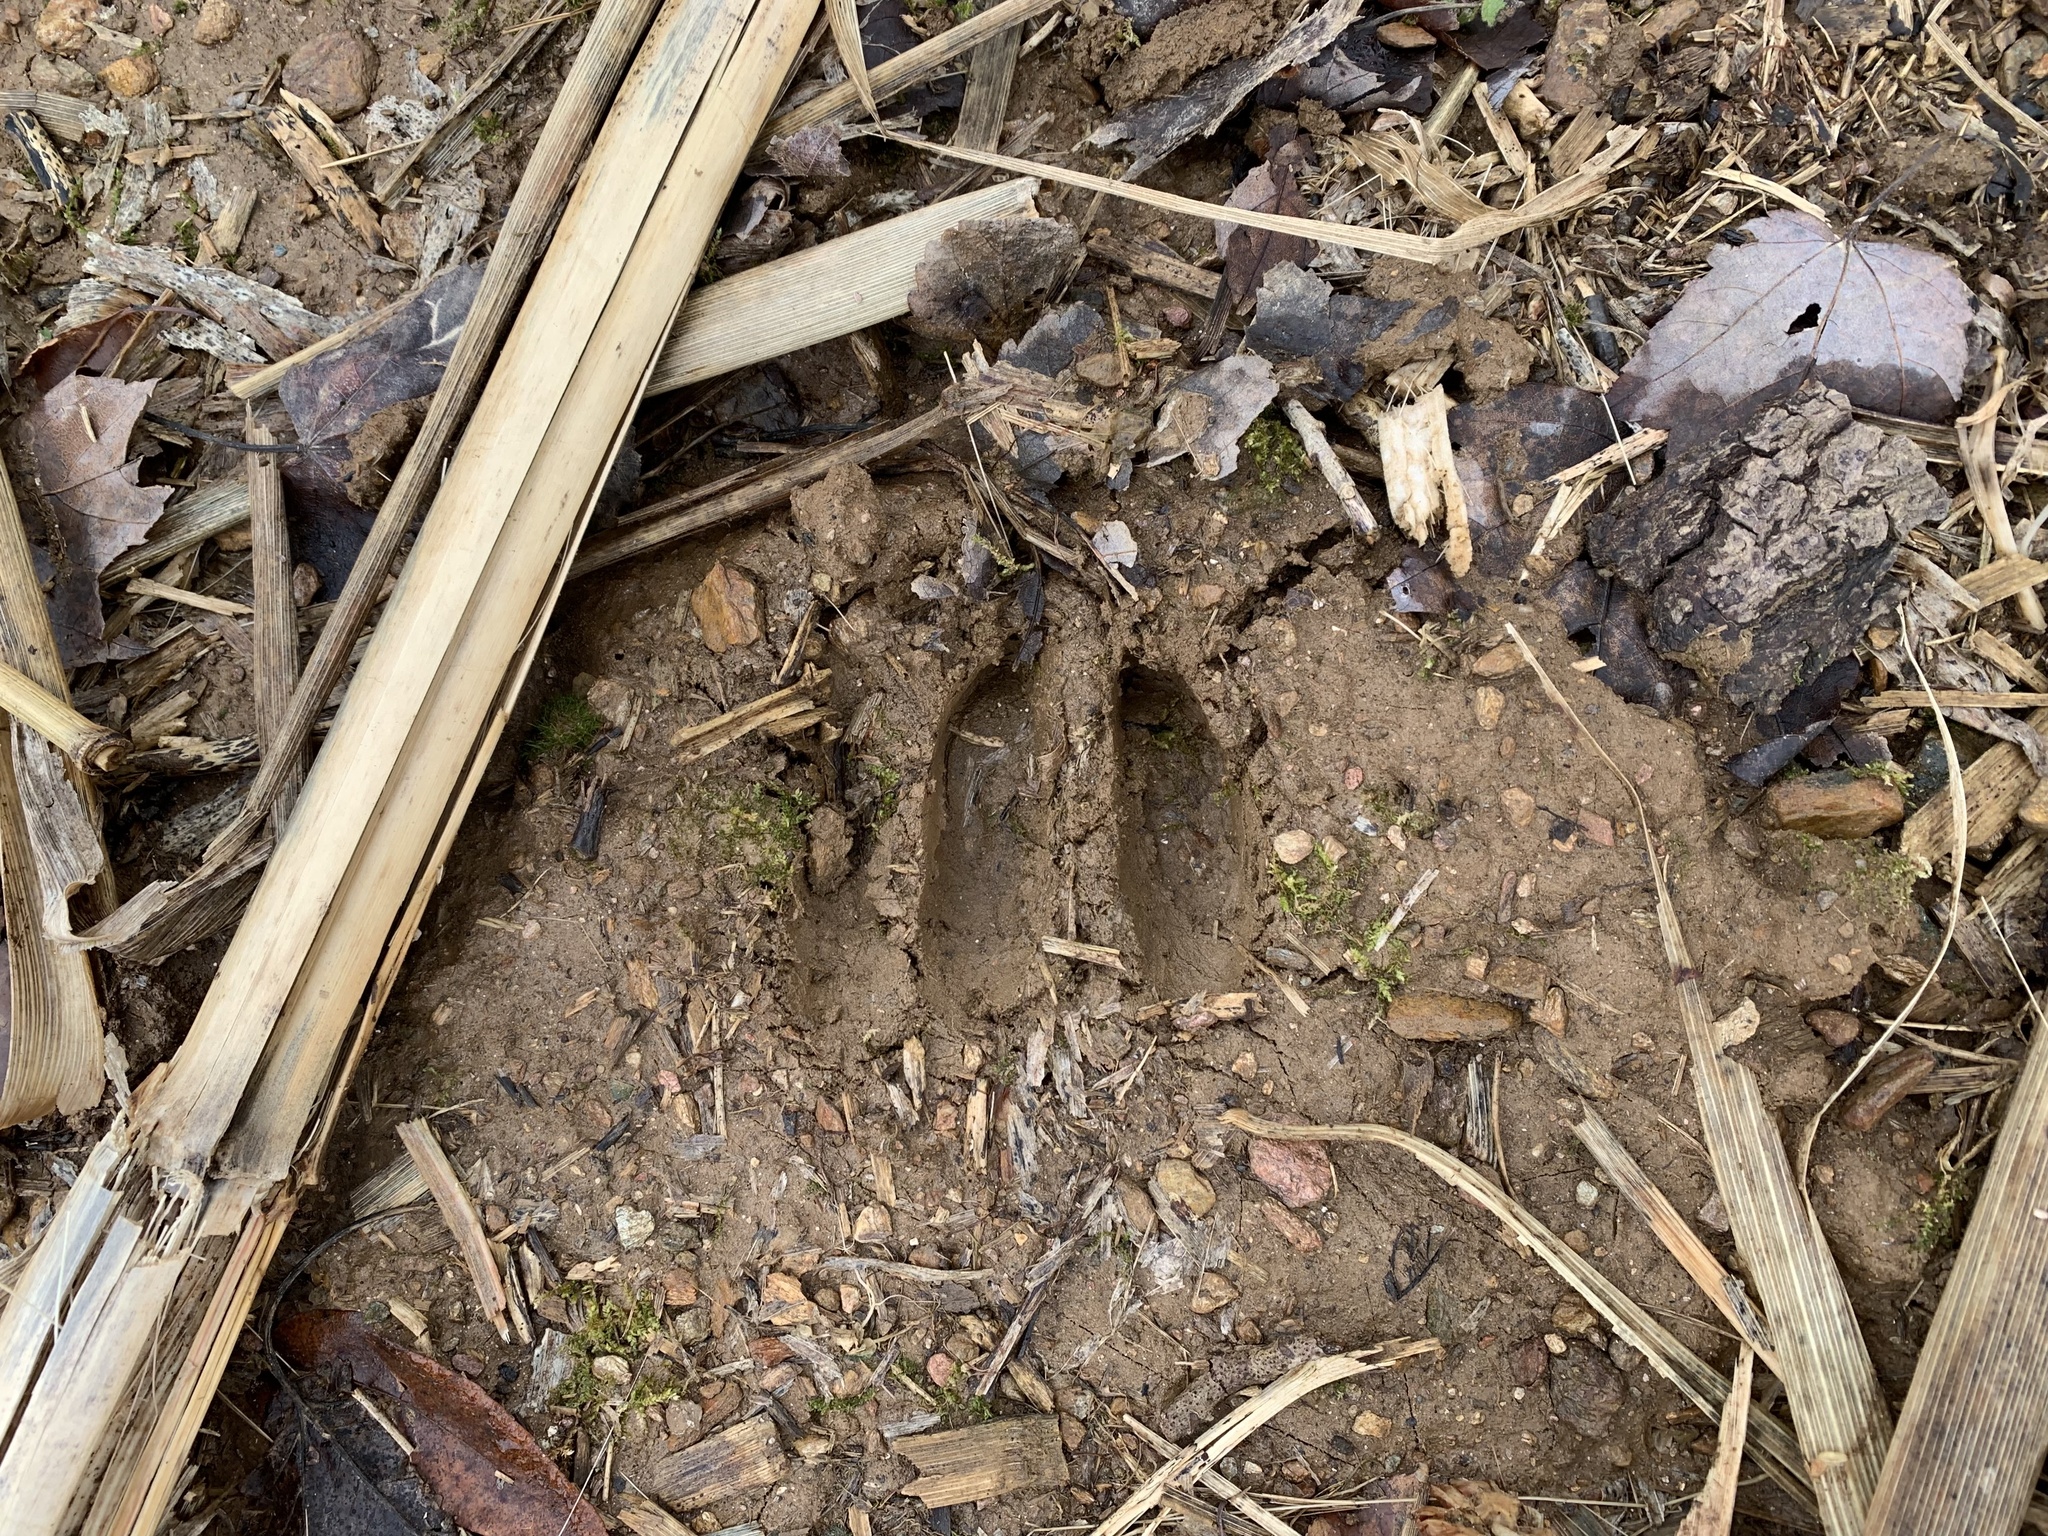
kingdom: Animalia
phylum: Chordata
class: Mammalia
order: Artiodactyla
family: Cervidae
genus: Odocoileus
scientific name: Odocoileus virginianus
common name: White-tailed deer
